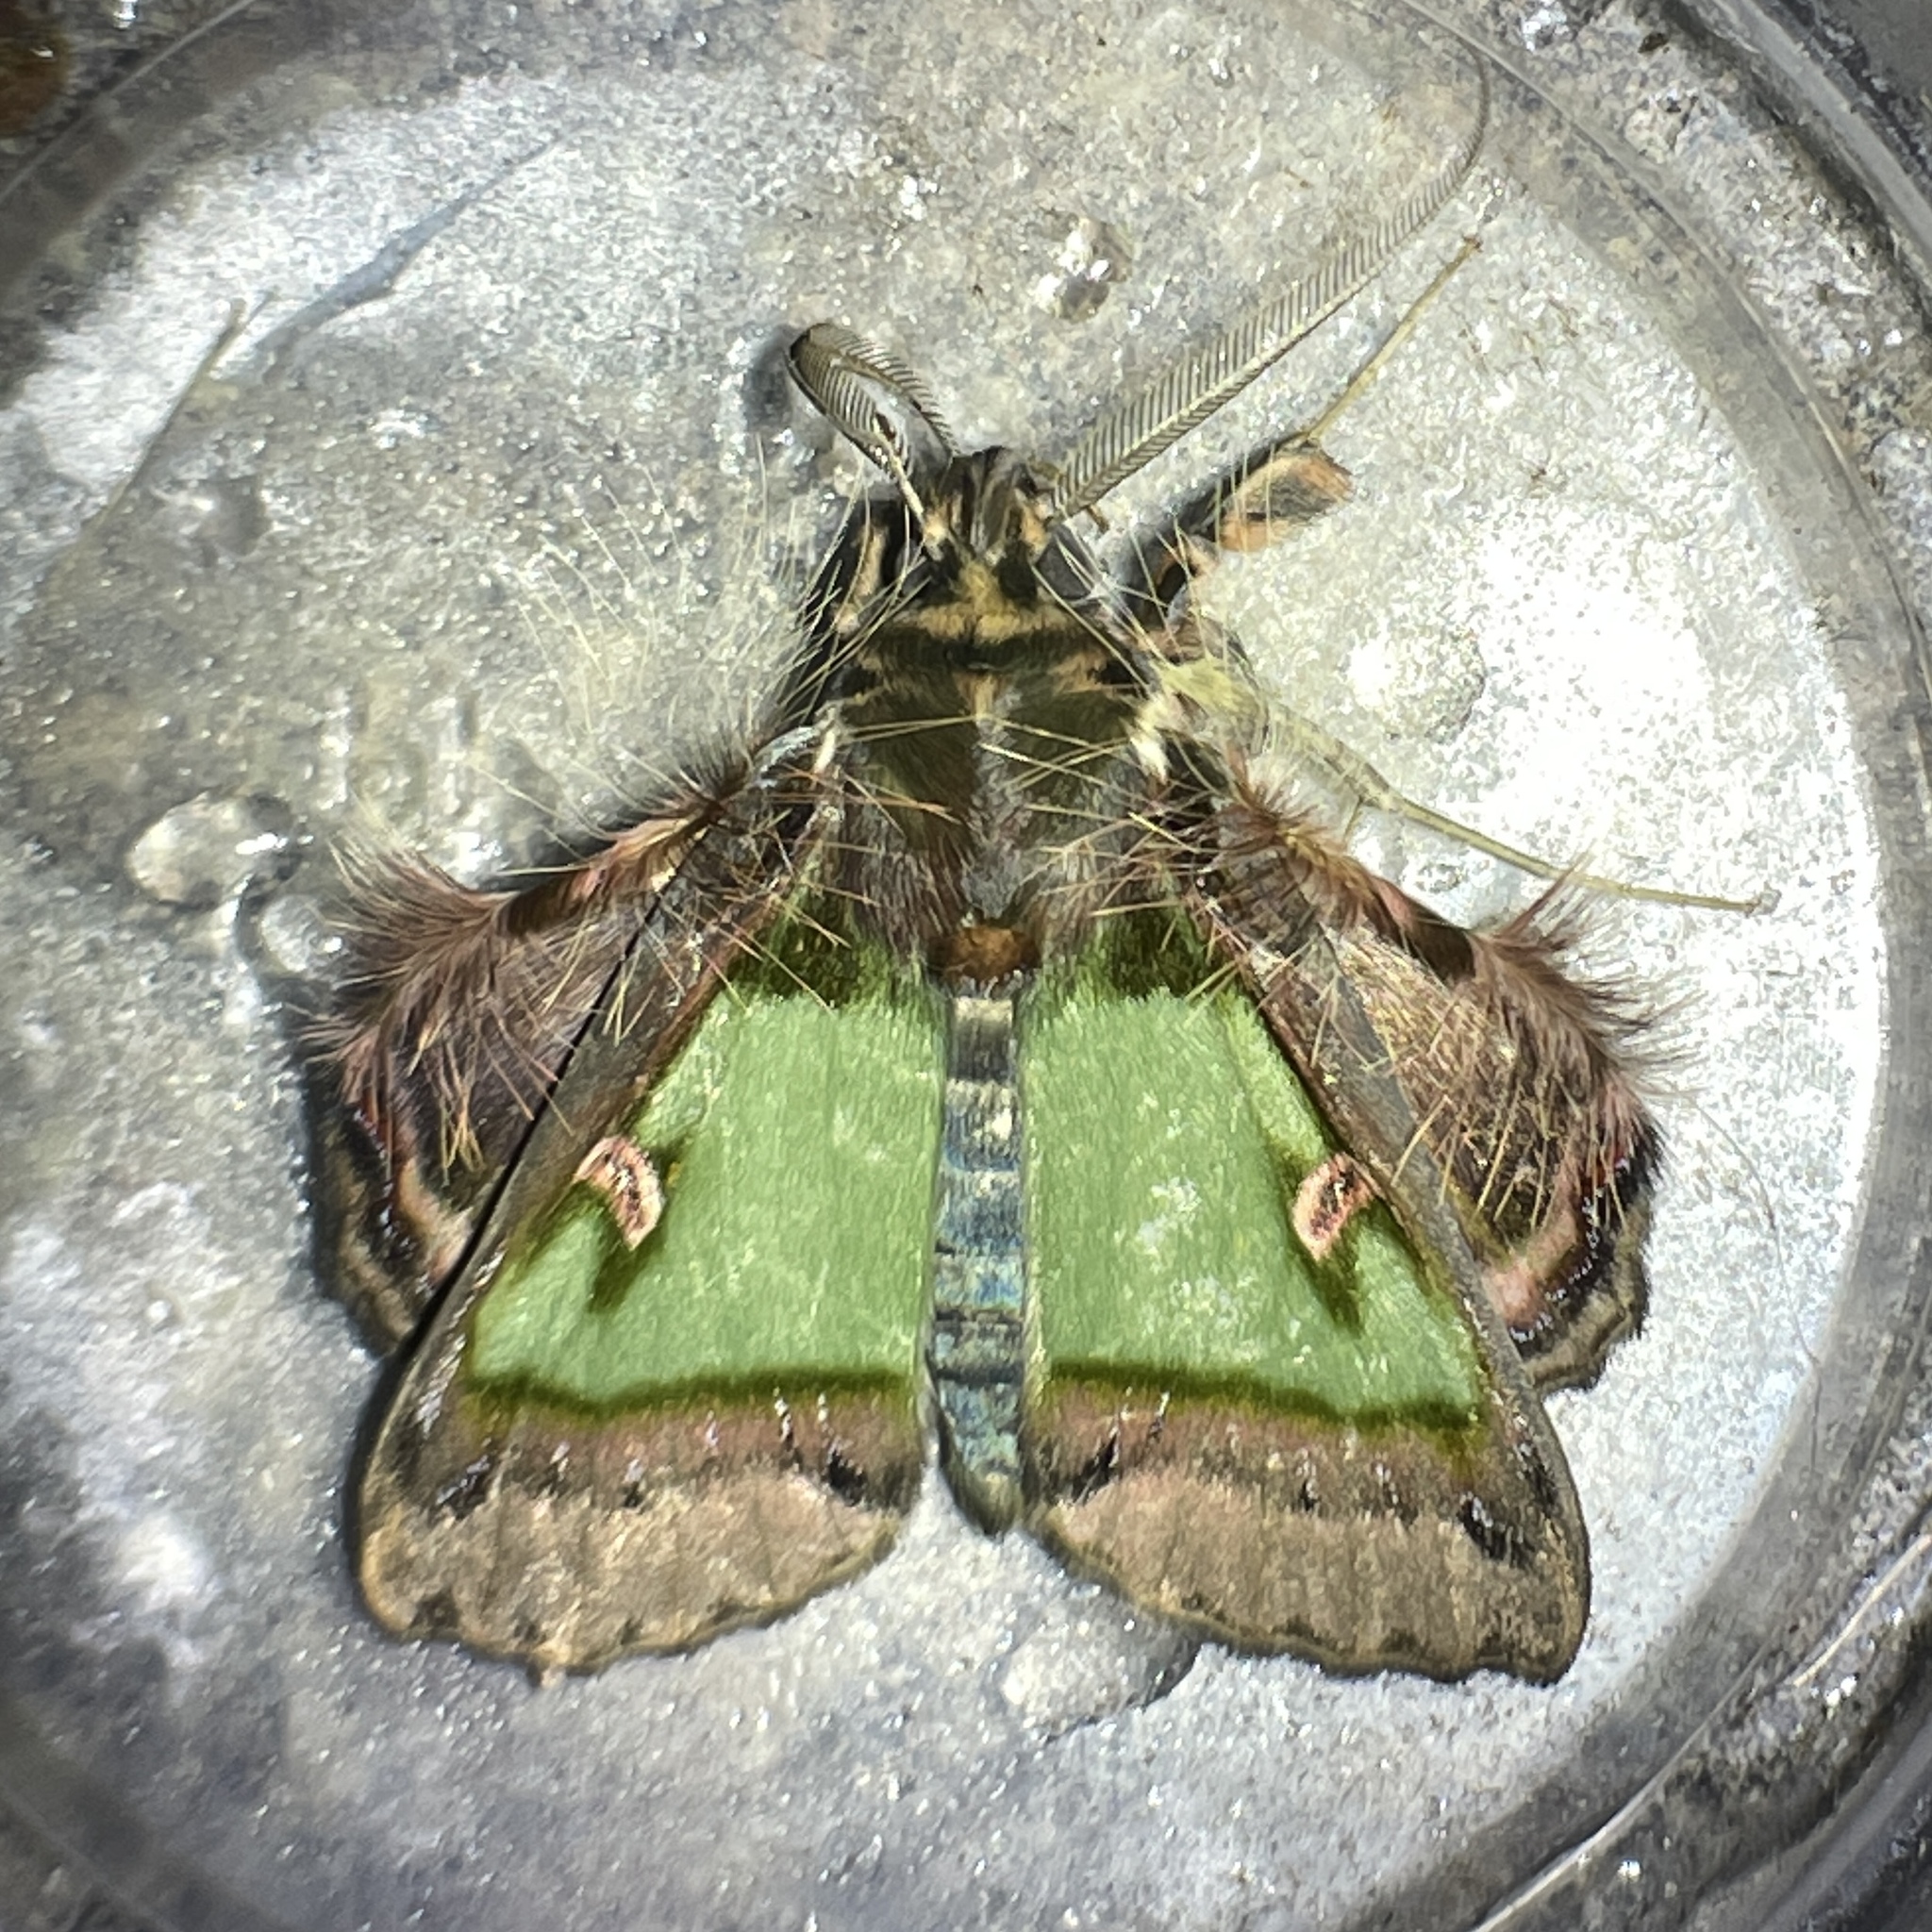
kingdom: Animalia
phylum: Arthropoda
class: Insecta
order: Lepidoptera
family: Erebidae
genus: Ceroctena
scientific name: Ceroctena amynta
